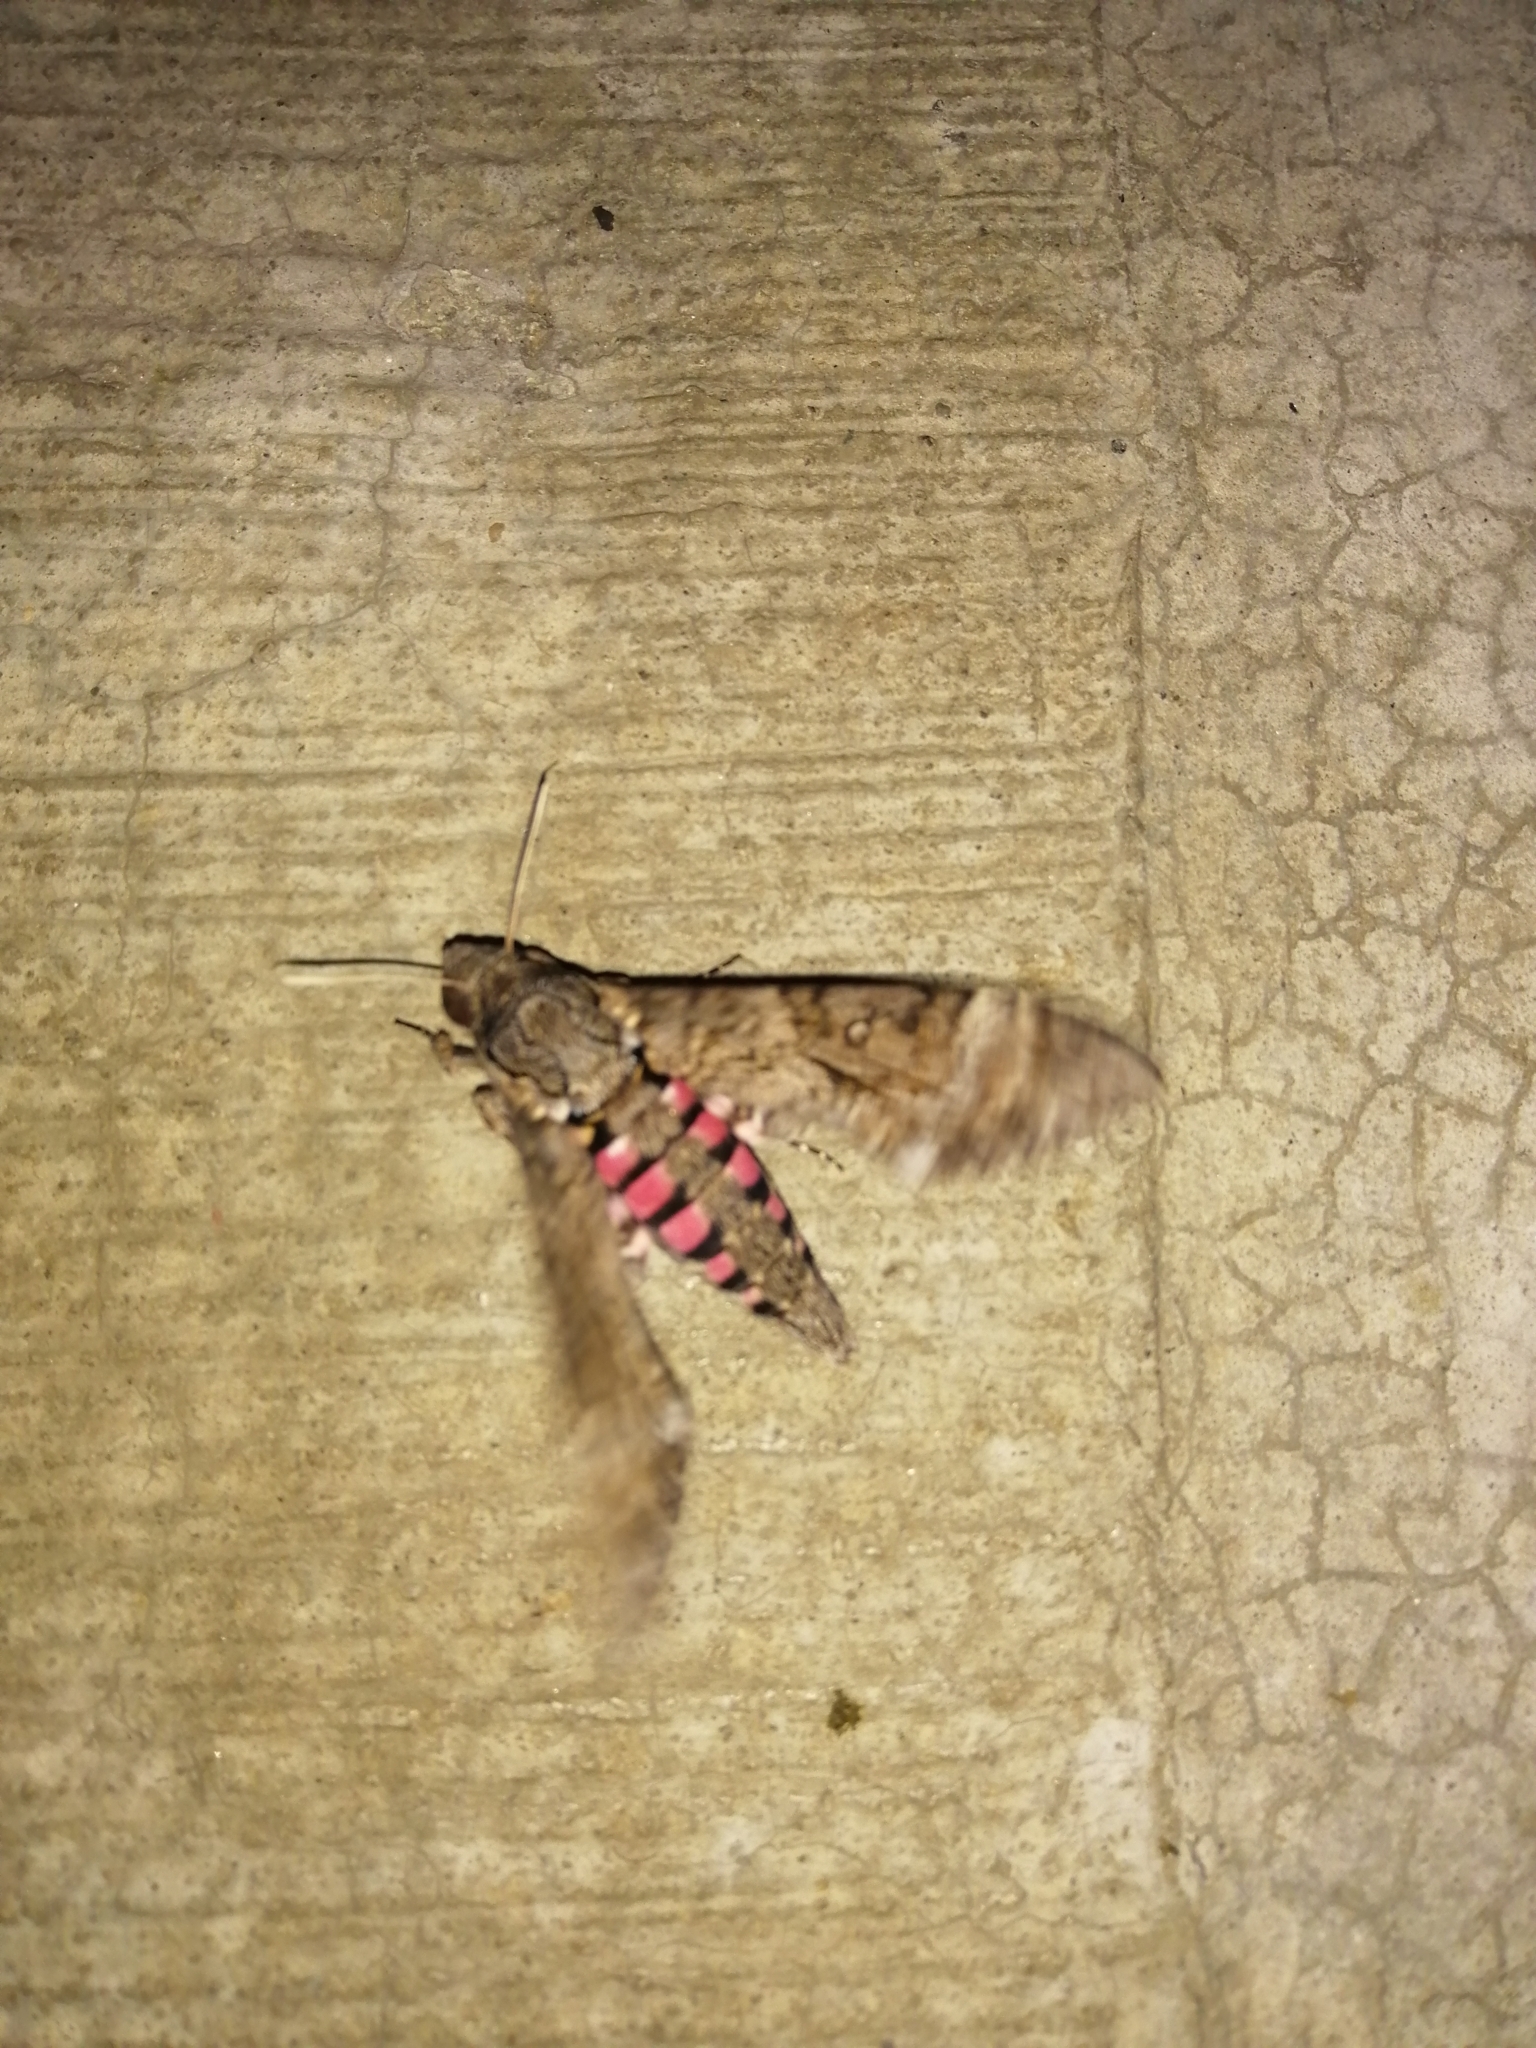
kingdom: Animalia
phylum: Arthropoda
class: Insecta
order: Lepidoptera
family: Sphingidae
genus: Agrius
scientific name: Agrius cingulata
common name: Pink-spotted hawkmoth
